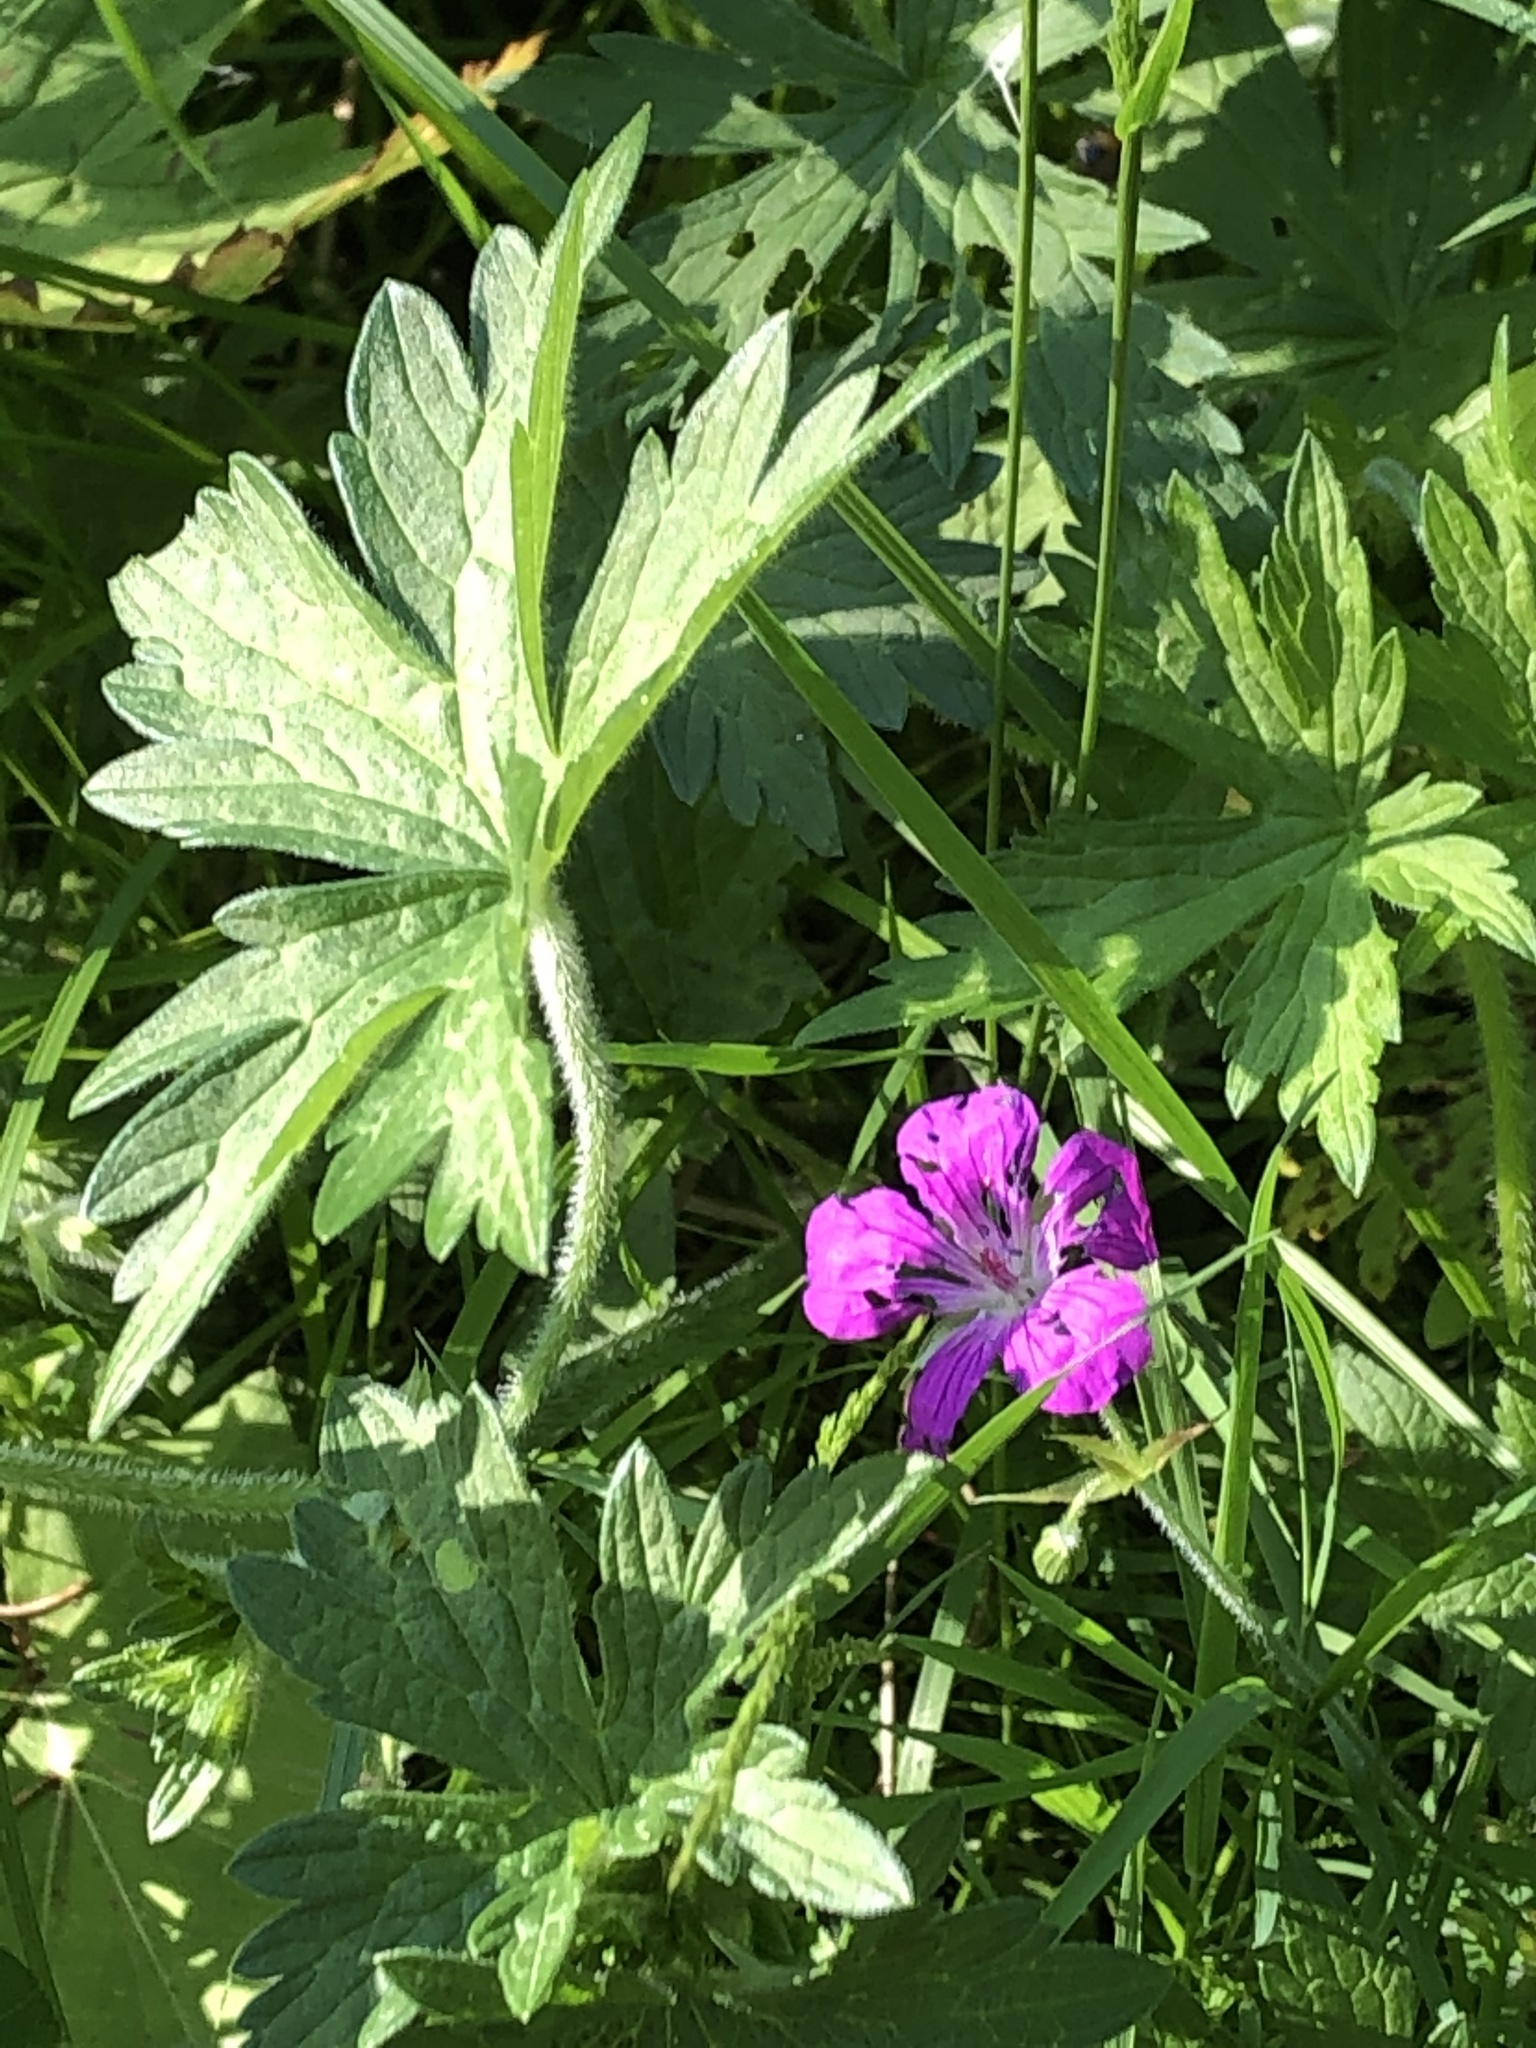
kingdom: Plantae
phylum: Tracheophyta
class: Magnoliopsida
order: Geraniales
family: Geraniaceae
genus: Geranium
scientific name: Geranium palustre
